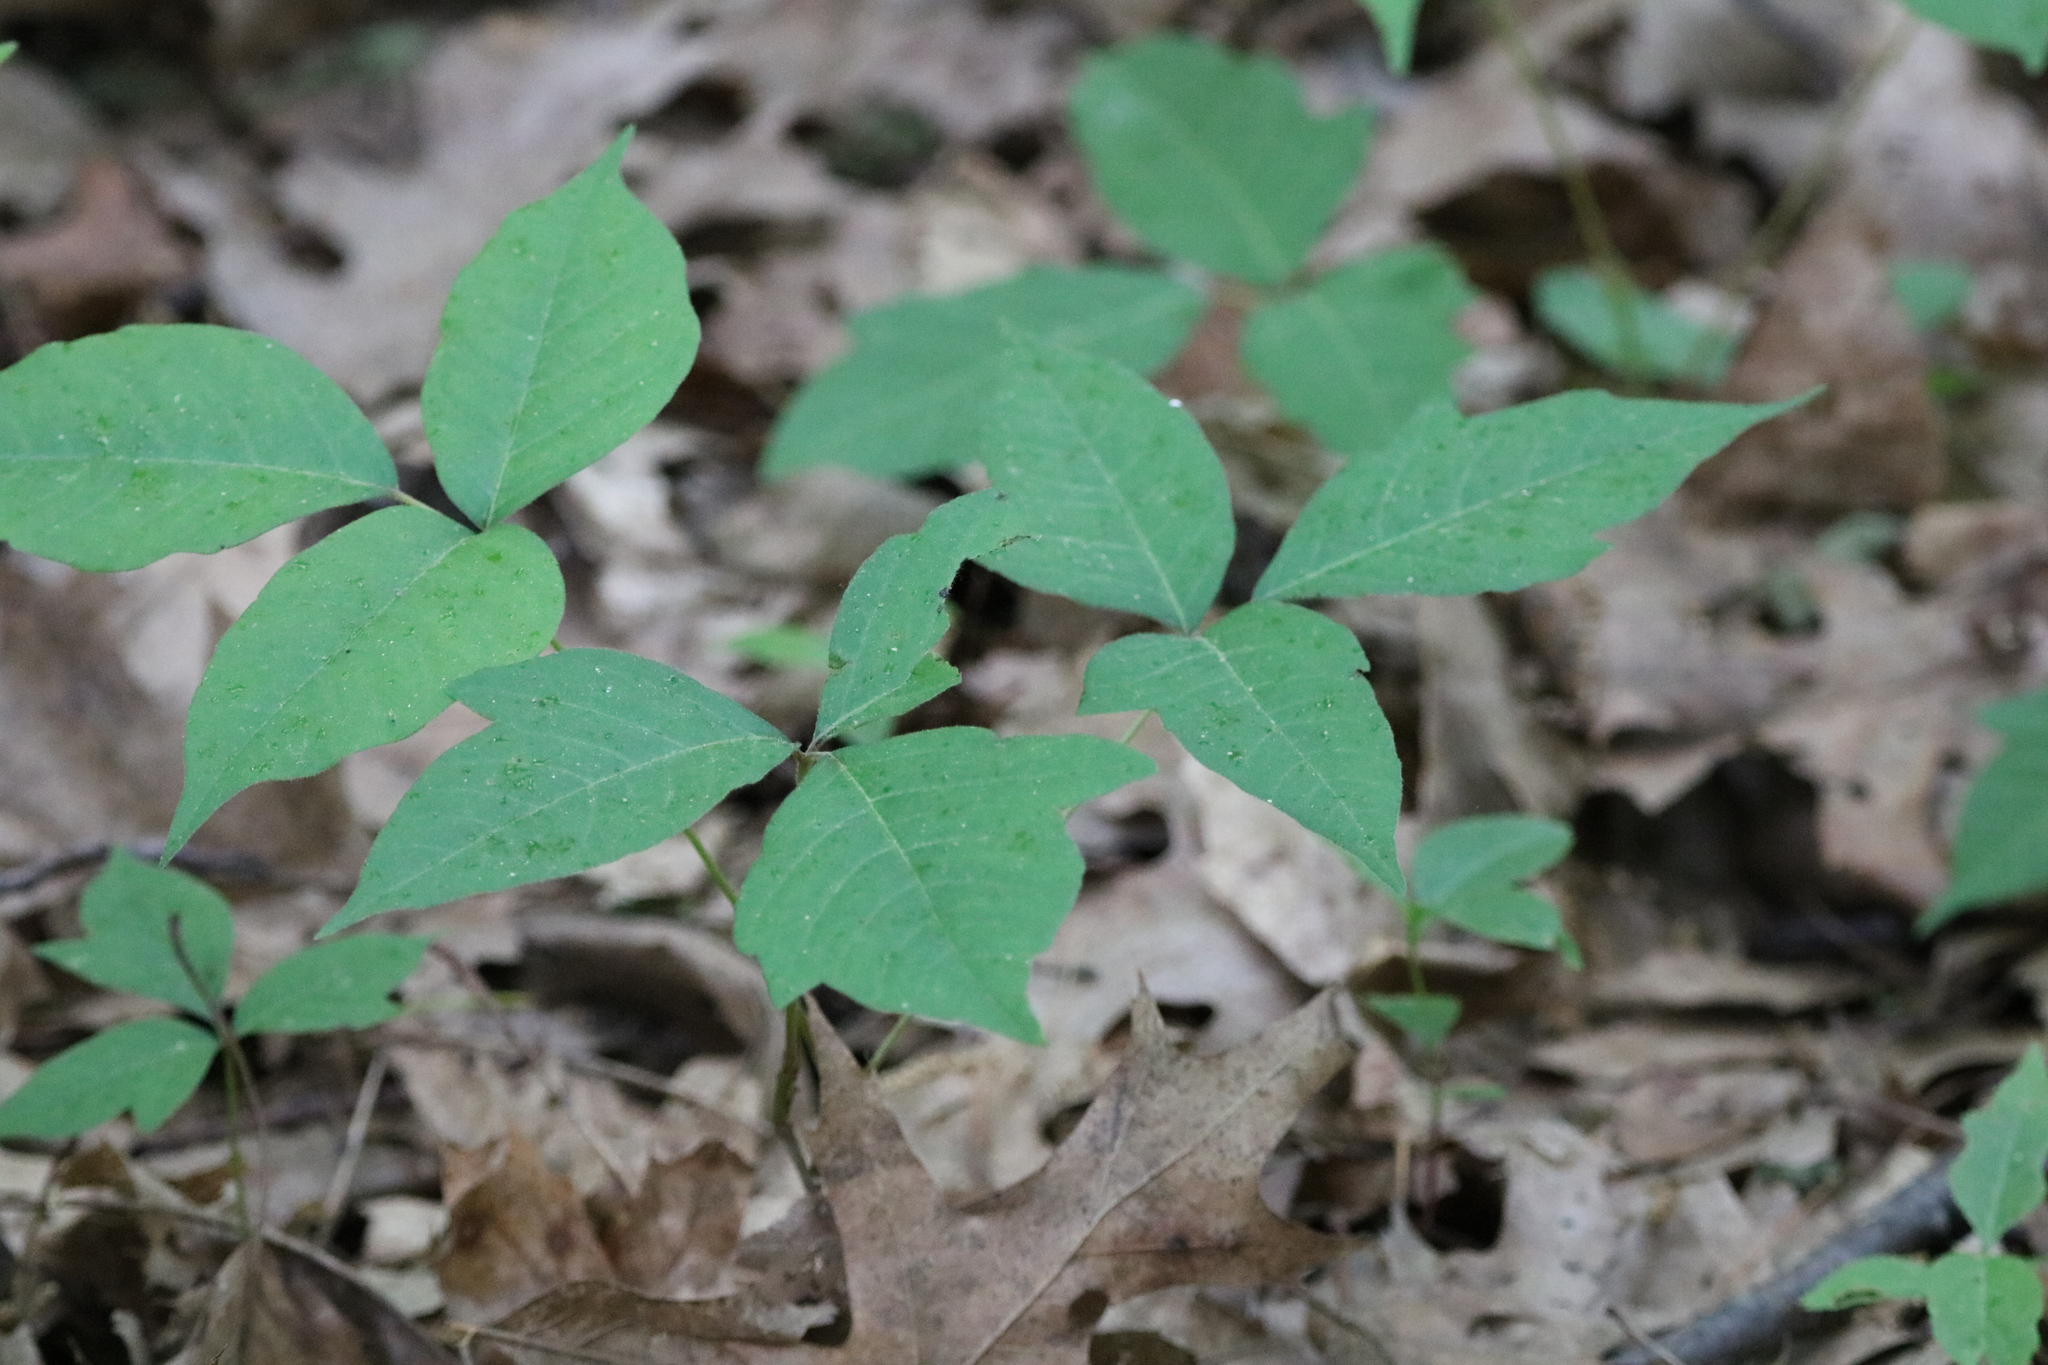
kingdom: Plantae
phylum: Tracheophyta
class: Magnoliopsida
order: Sapindales
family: Anacardiaceae
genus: Toxicodendron
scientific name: Toxicodendron radicans
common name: Poison ivy
